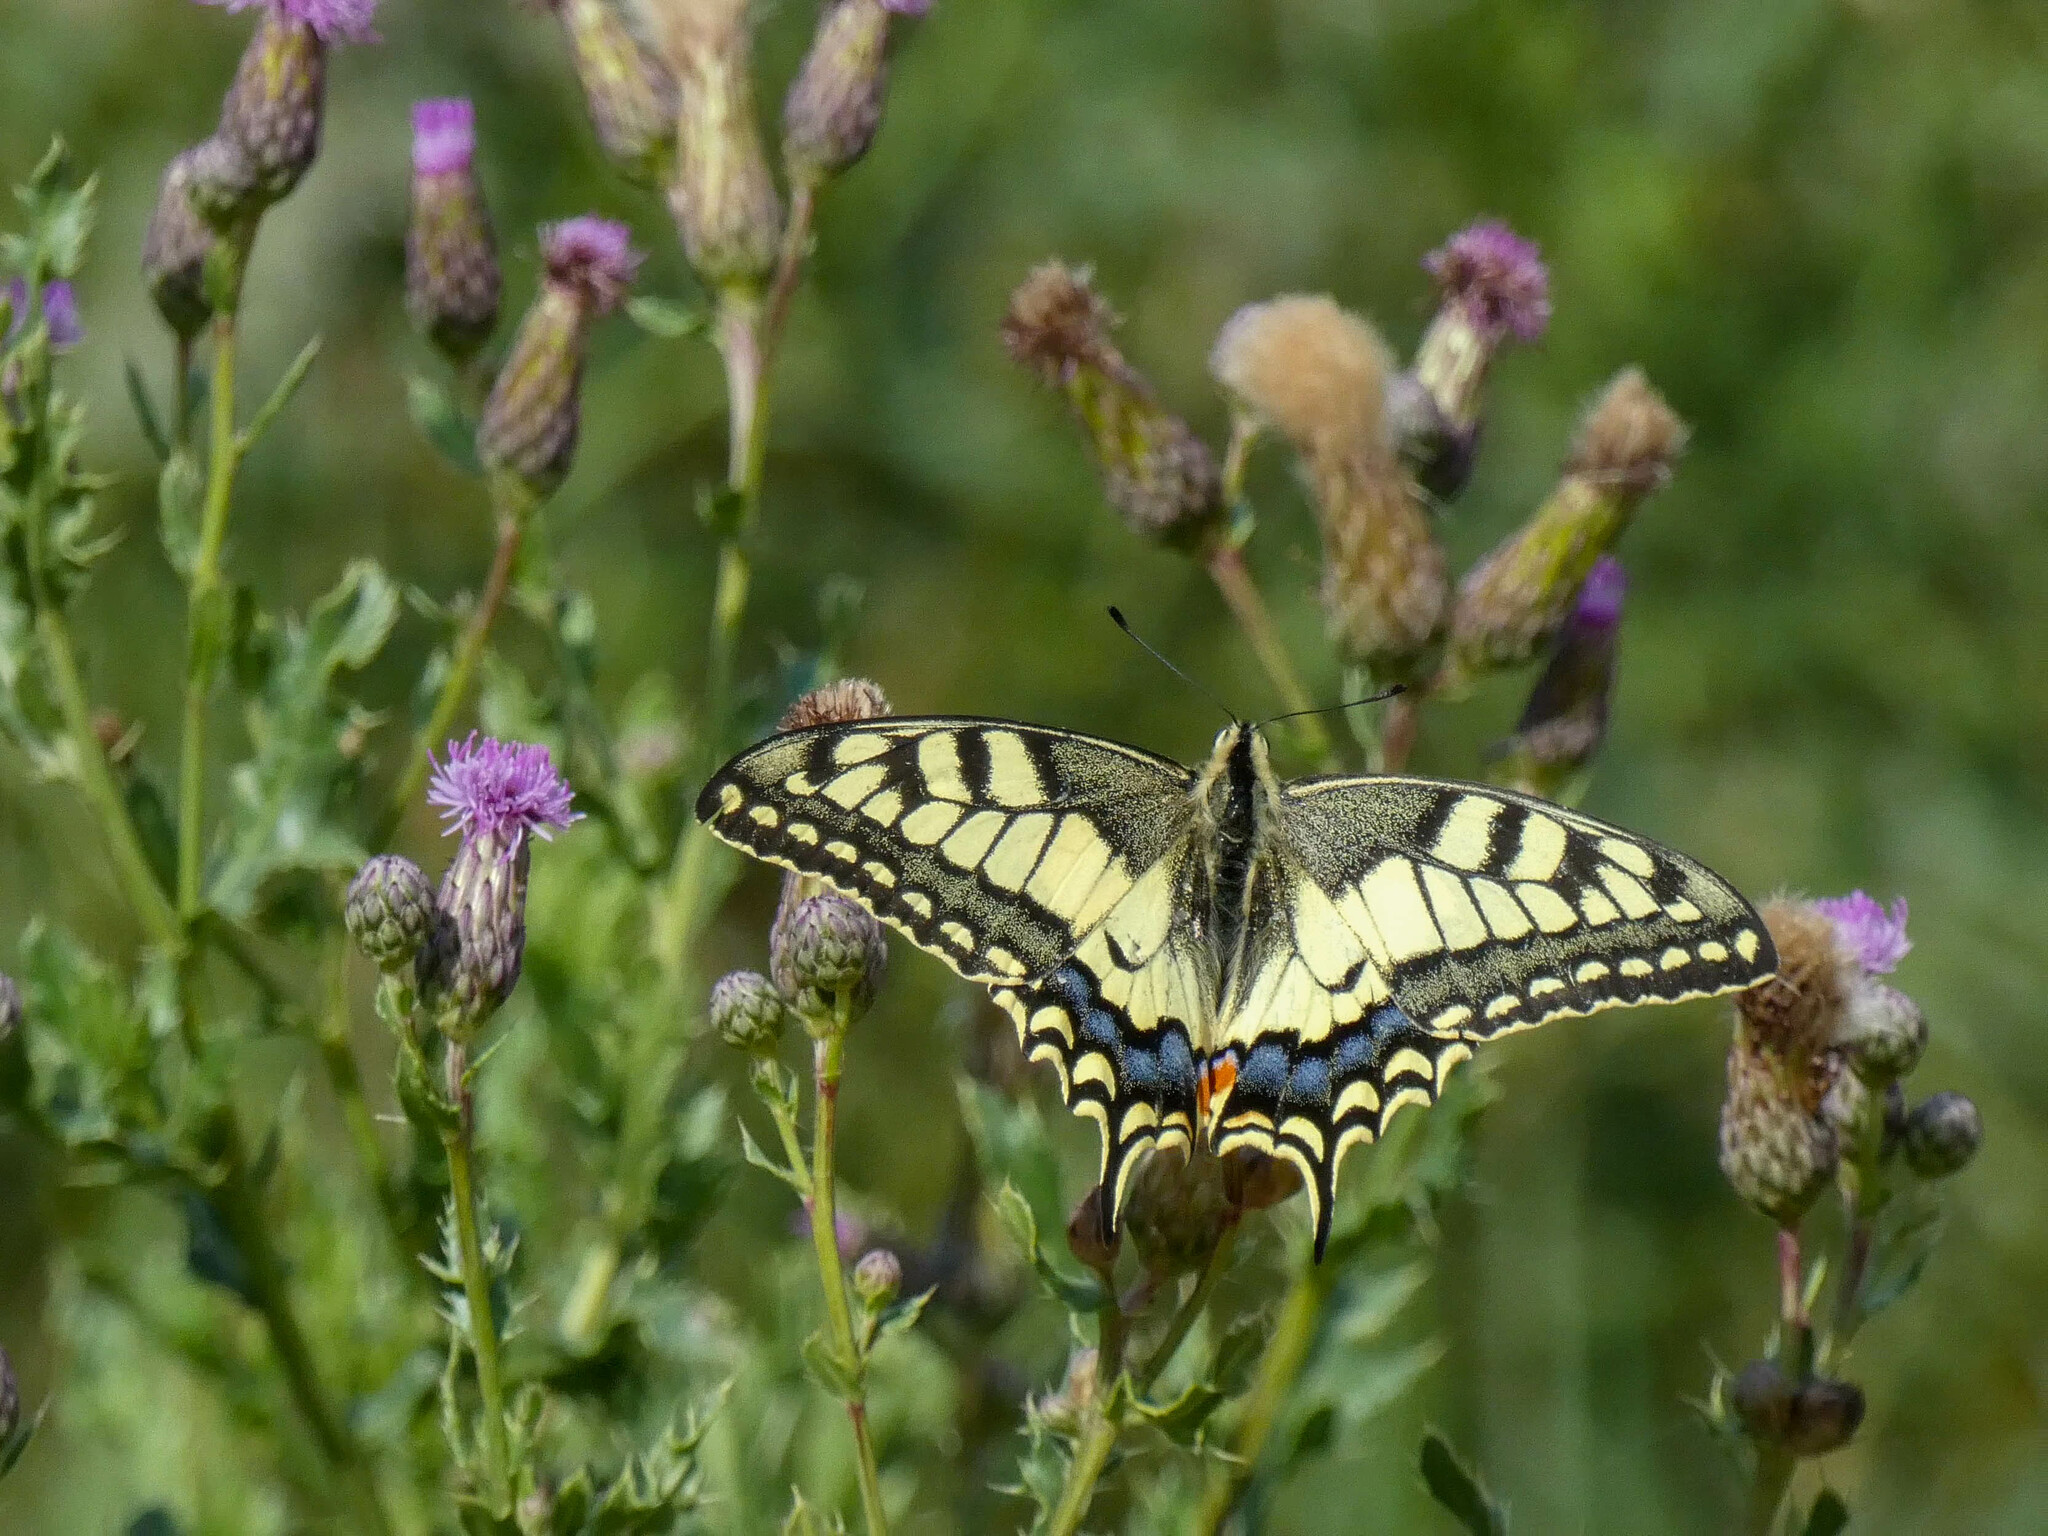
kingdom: Animalia
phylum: Arthropoda
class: Insecta
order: Lepidoptera
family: Papilionidae
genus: Papilio
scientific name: Papilio machaon
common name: Swallowtail
